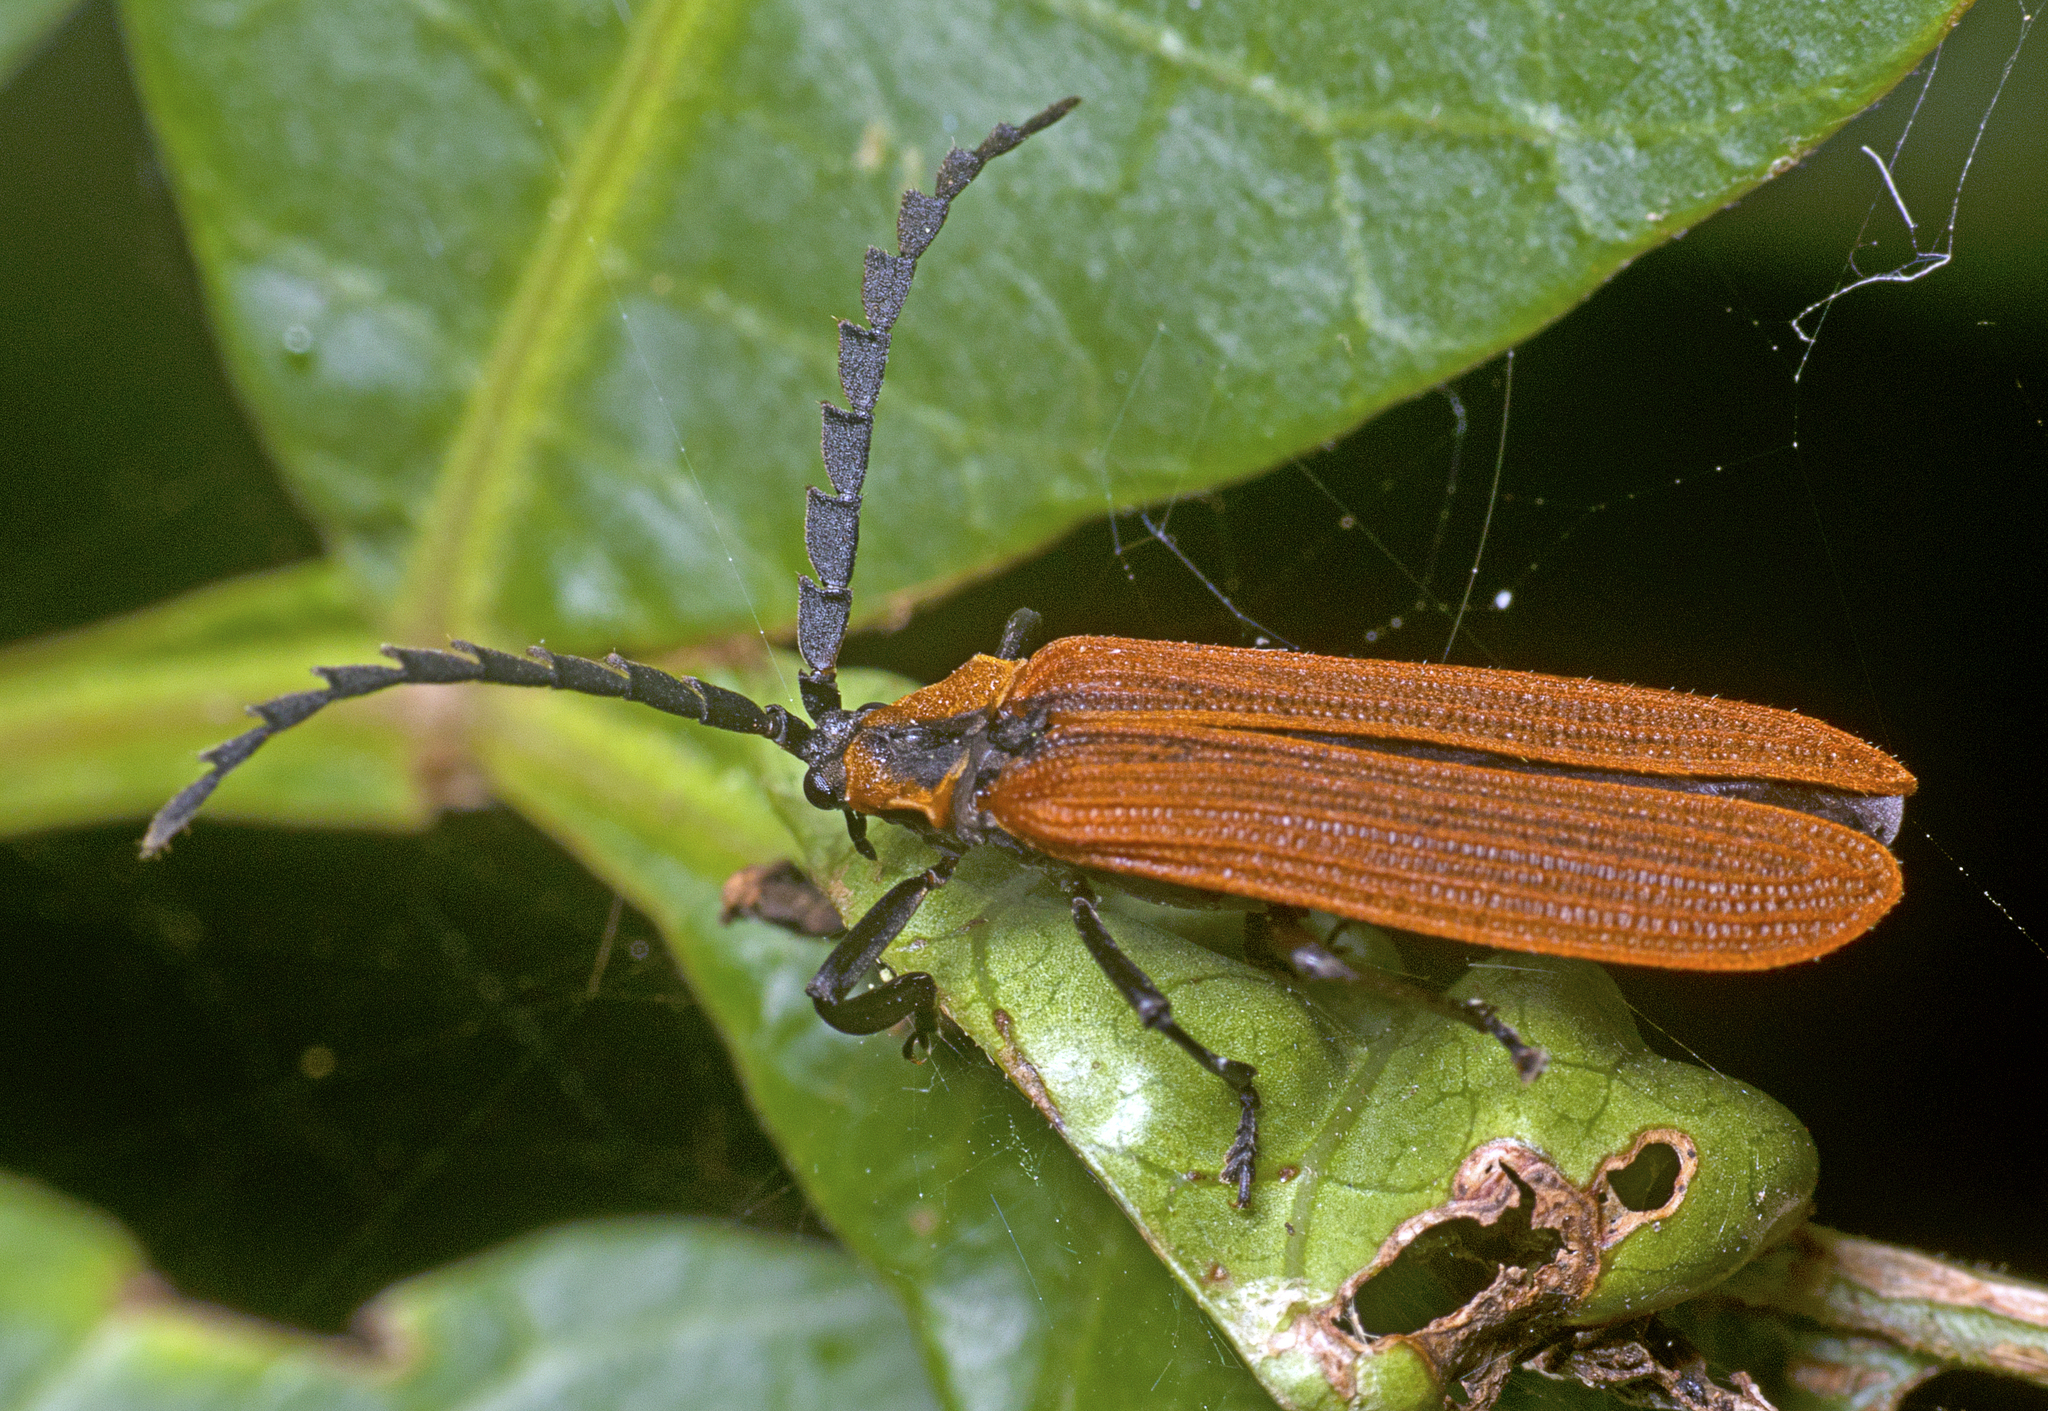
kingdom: Animalia
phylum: Arthropoda
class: Insecta
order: Coleoptera
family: Lycidae
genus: Trichalus
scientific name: Trichalus
